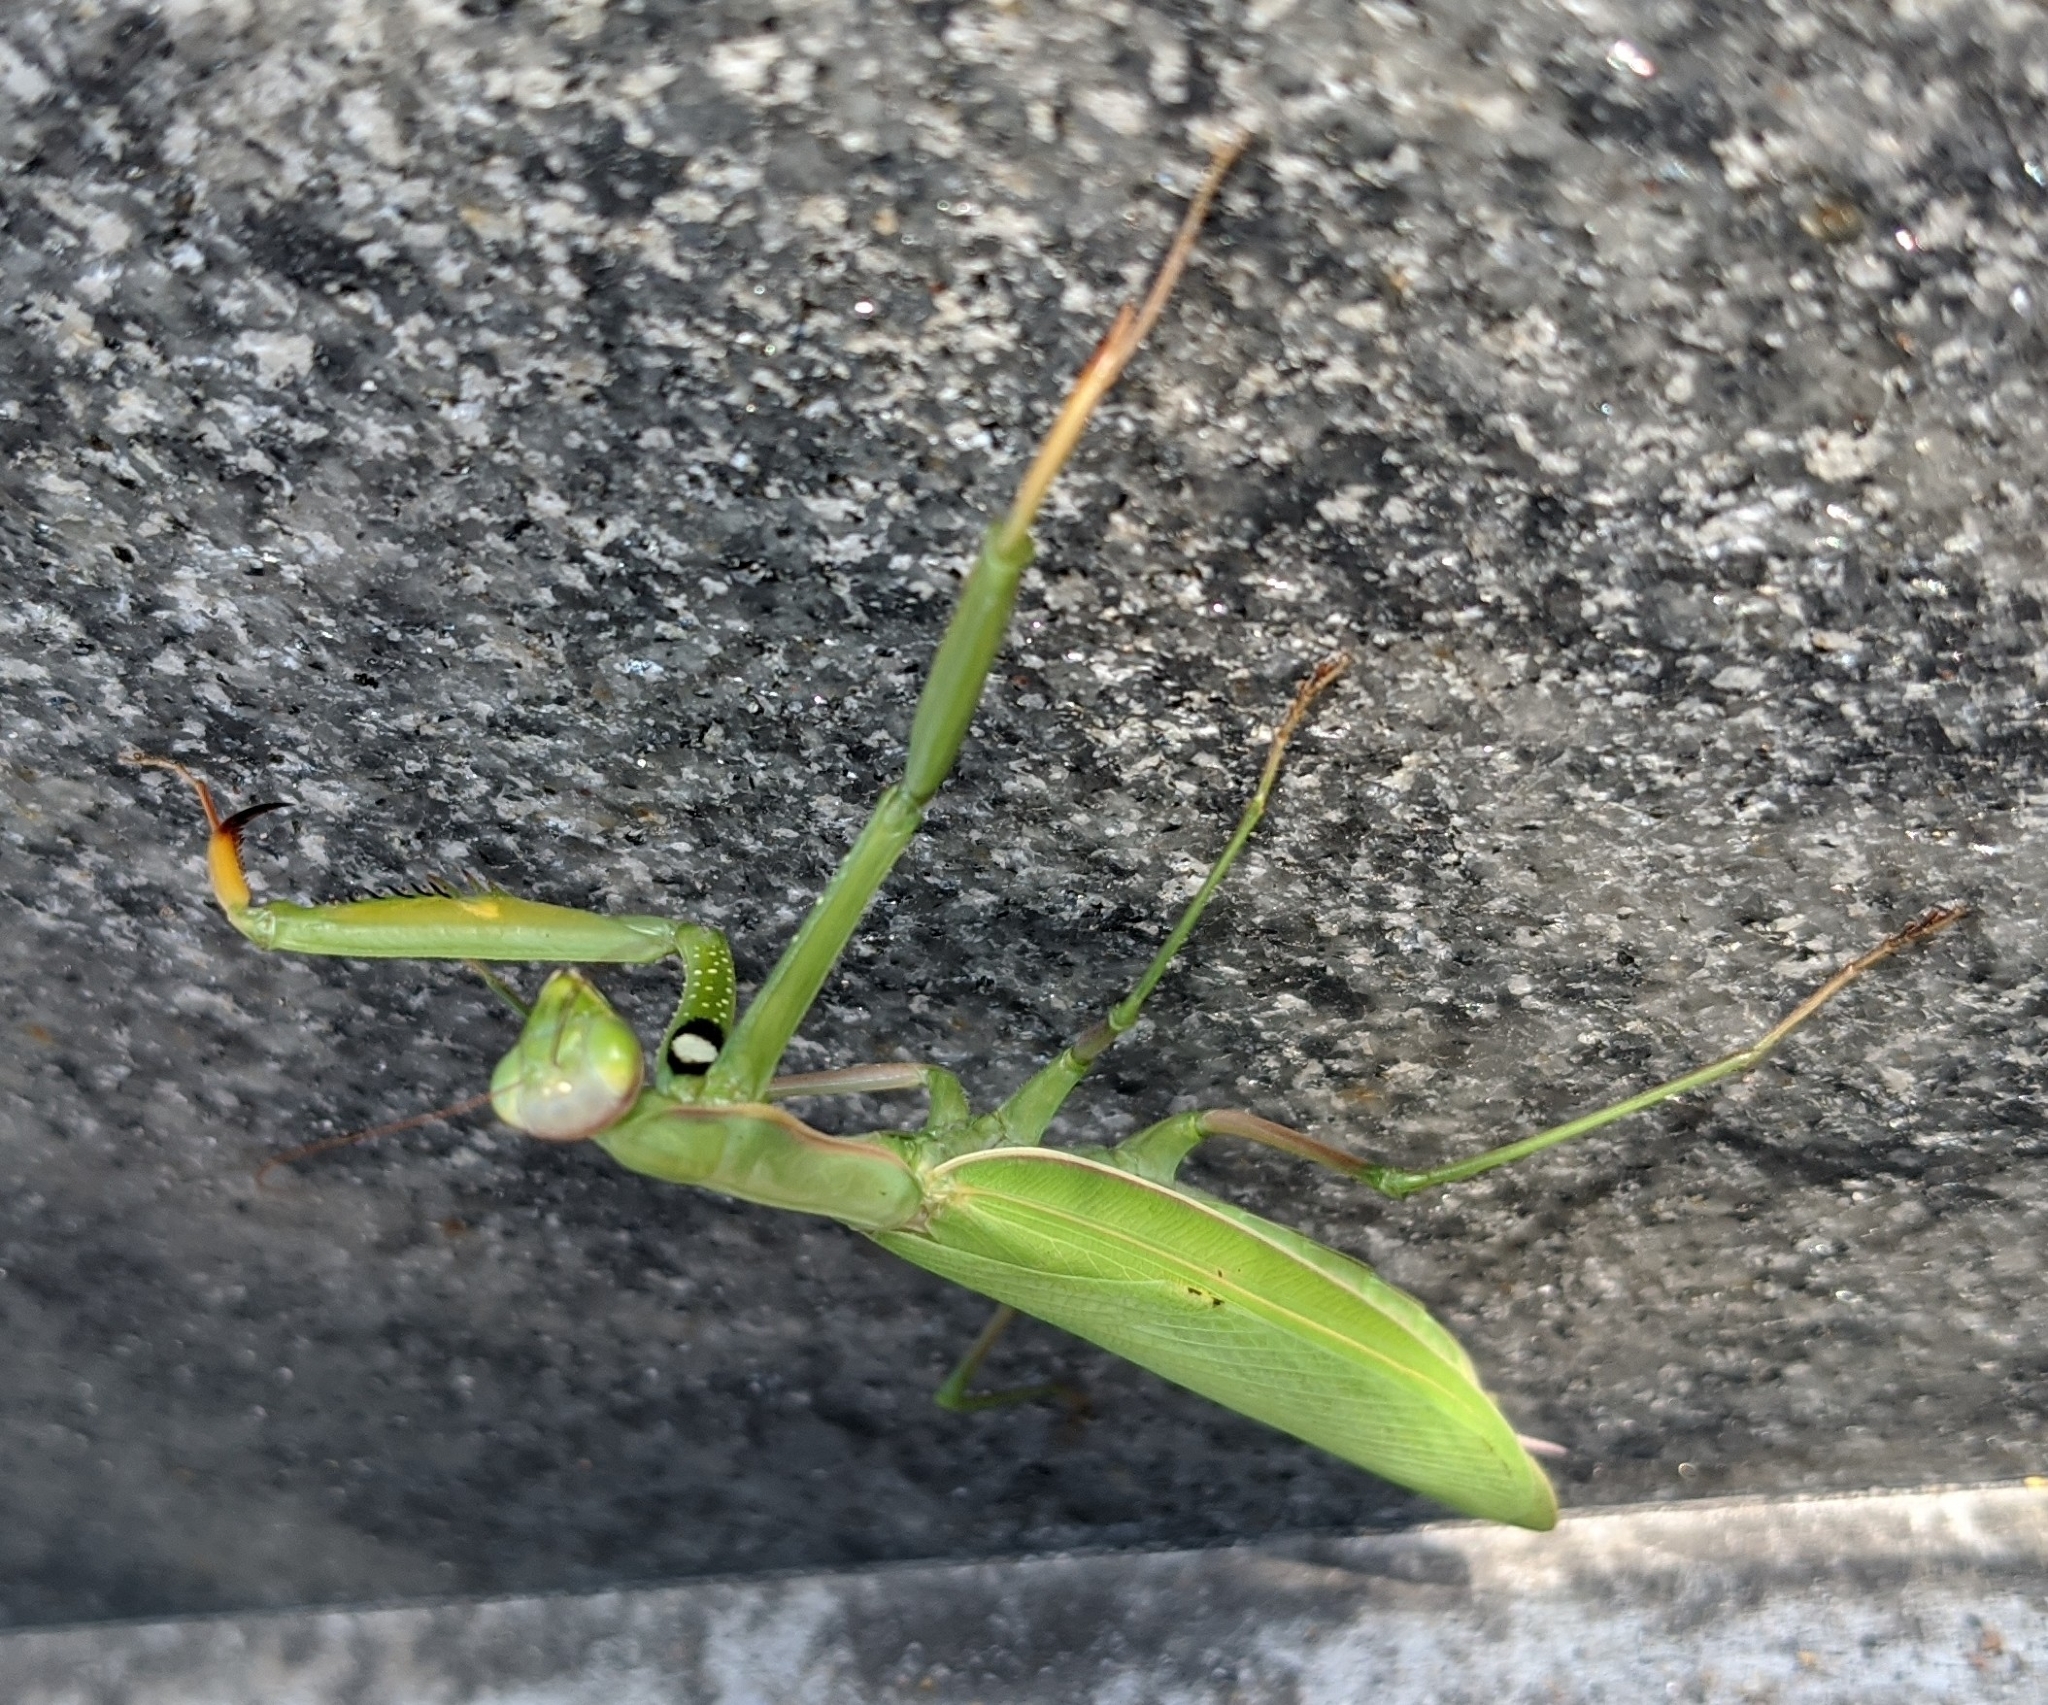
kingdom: Animalia
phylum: Arthropoda
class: Insecta
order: Mantodea
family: Mantidae
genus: Mantis
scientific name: Mantis religiosa
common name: Praying mantis
